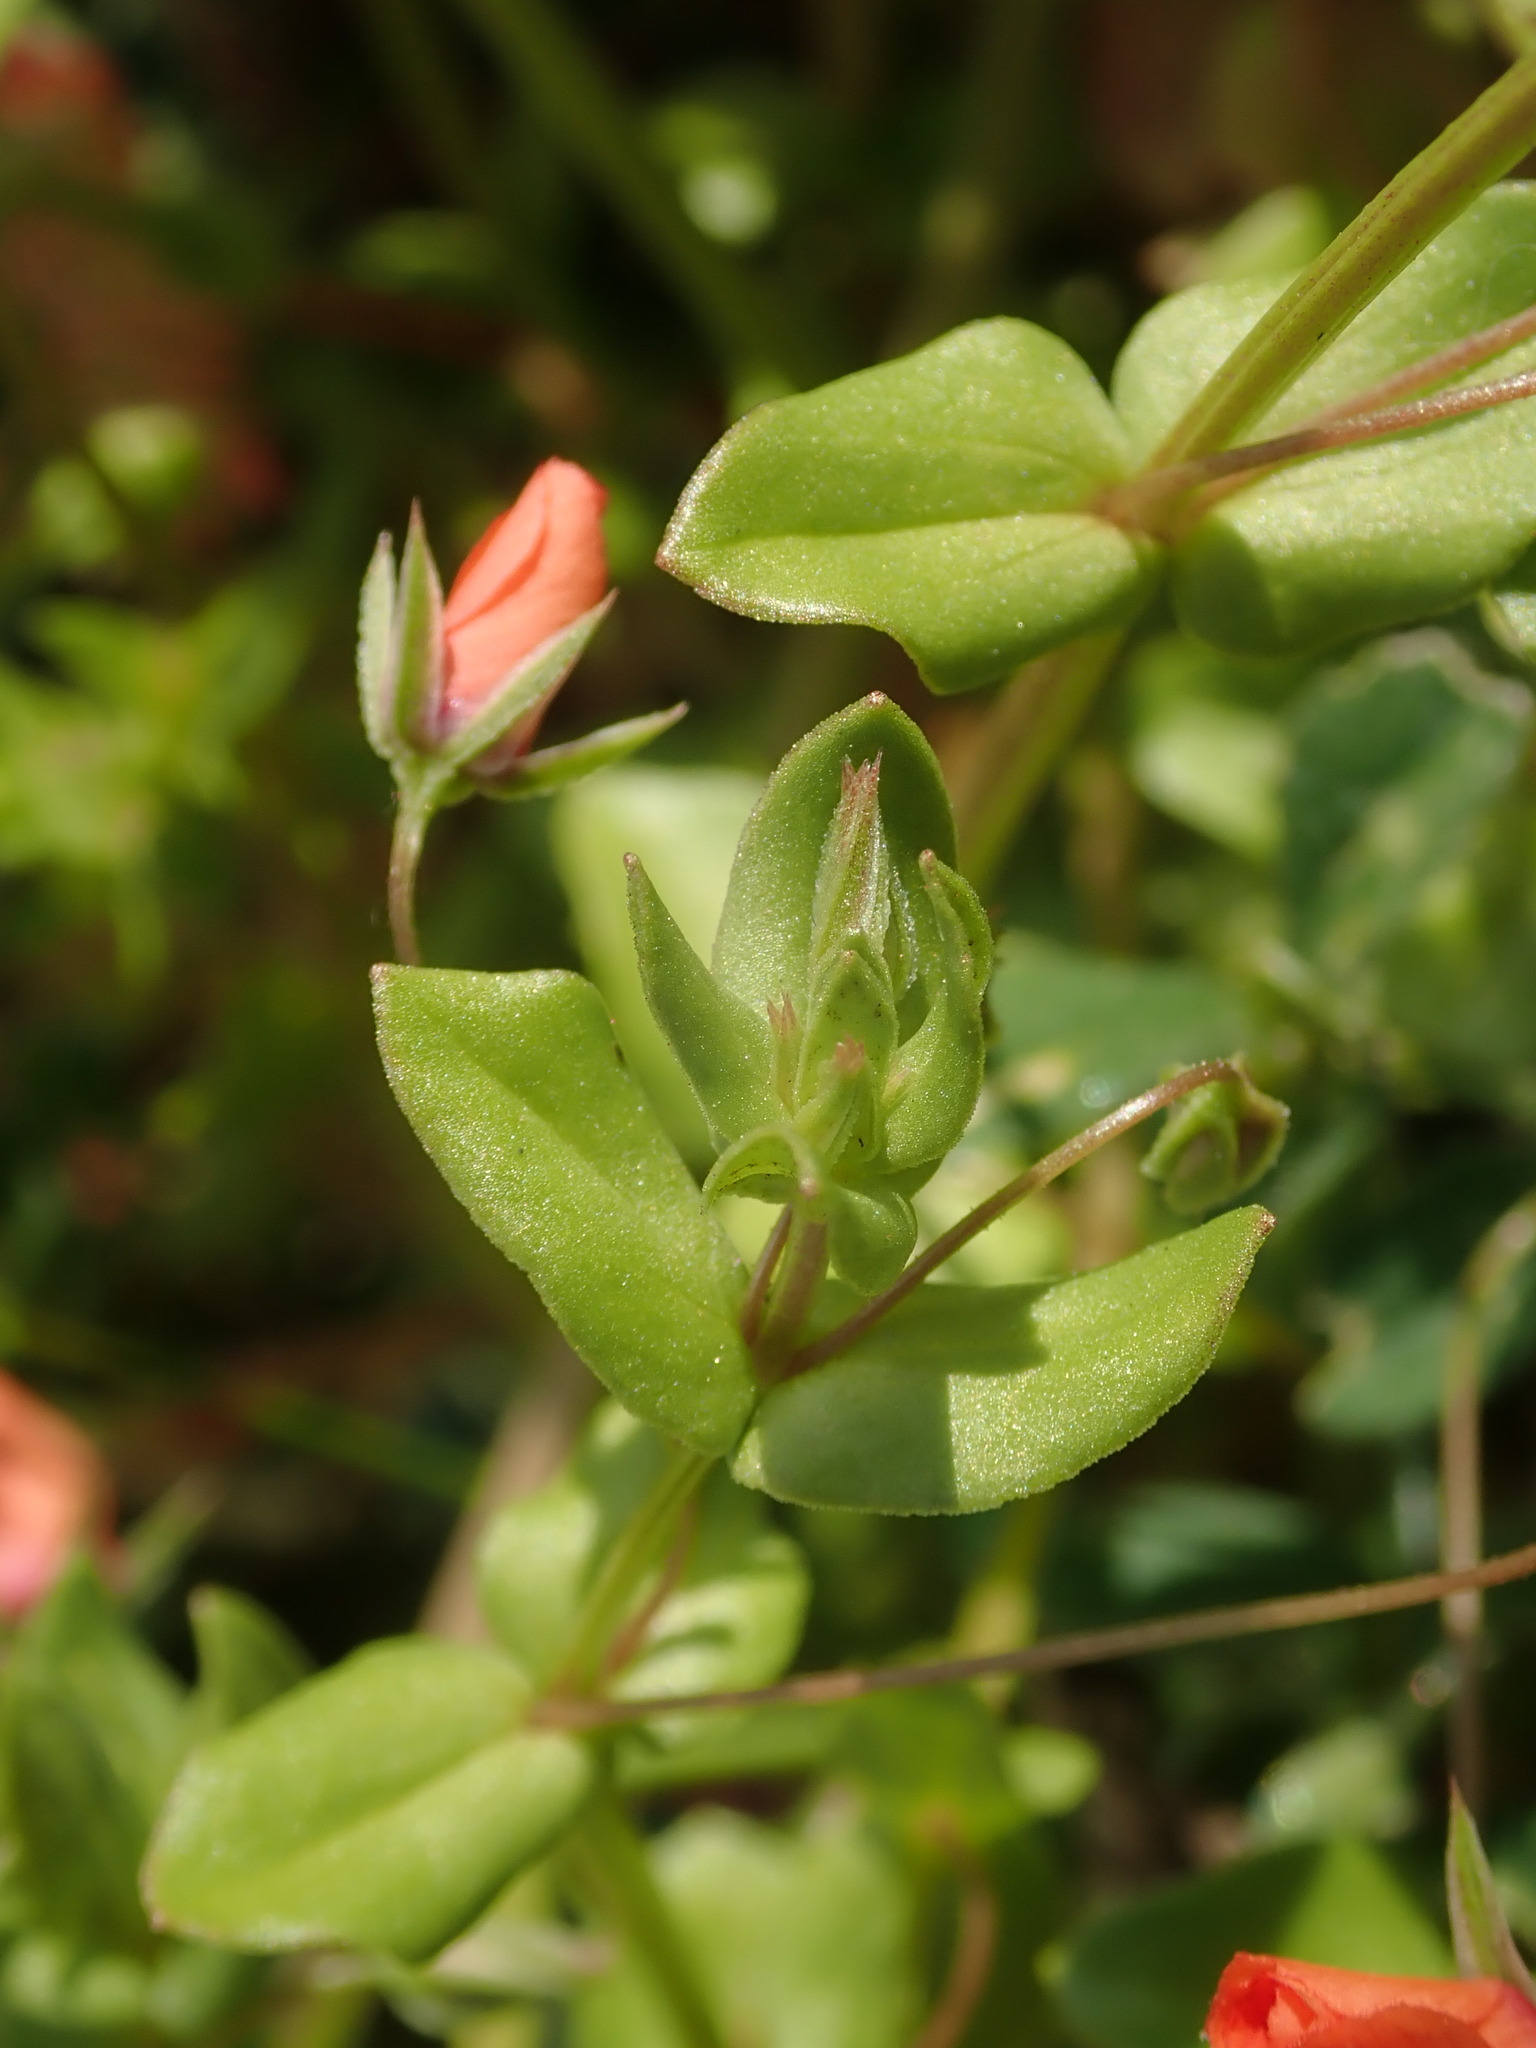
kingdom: Plantae
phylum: Tracheophyta
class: Magnoliopsida
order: Ericales
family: Primulaceae
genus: Lysimachia
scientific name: Lysimachia arvensis
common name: Scarlet pimpernel
